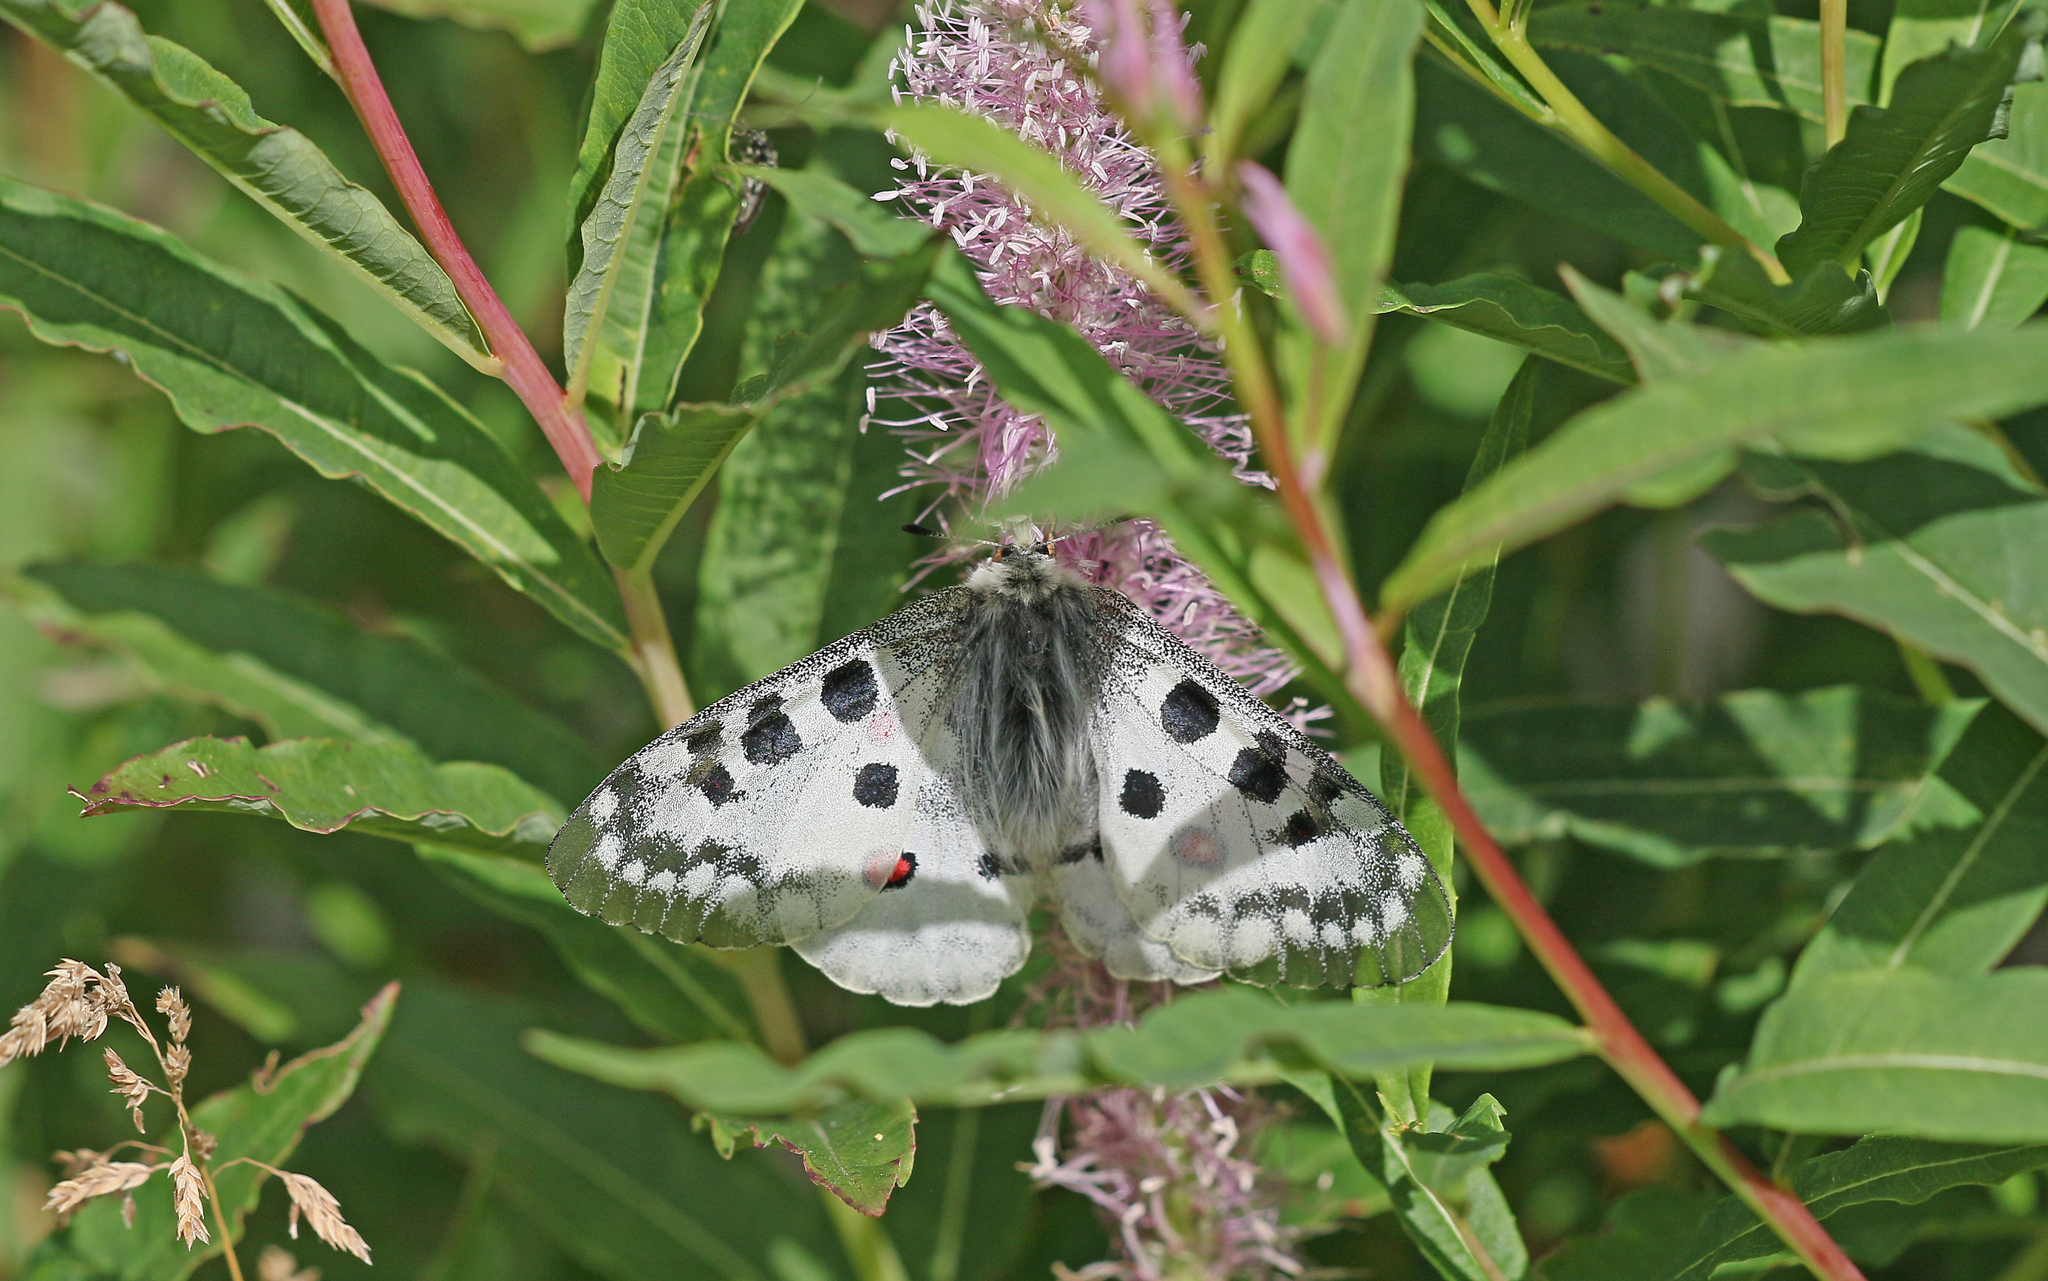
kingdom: Animalia
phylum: Arthropoda
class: Insecta
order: Lepidoptera
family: Papilionidae
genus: Parnassius
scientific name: Parnassius apollo
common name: Apollo
